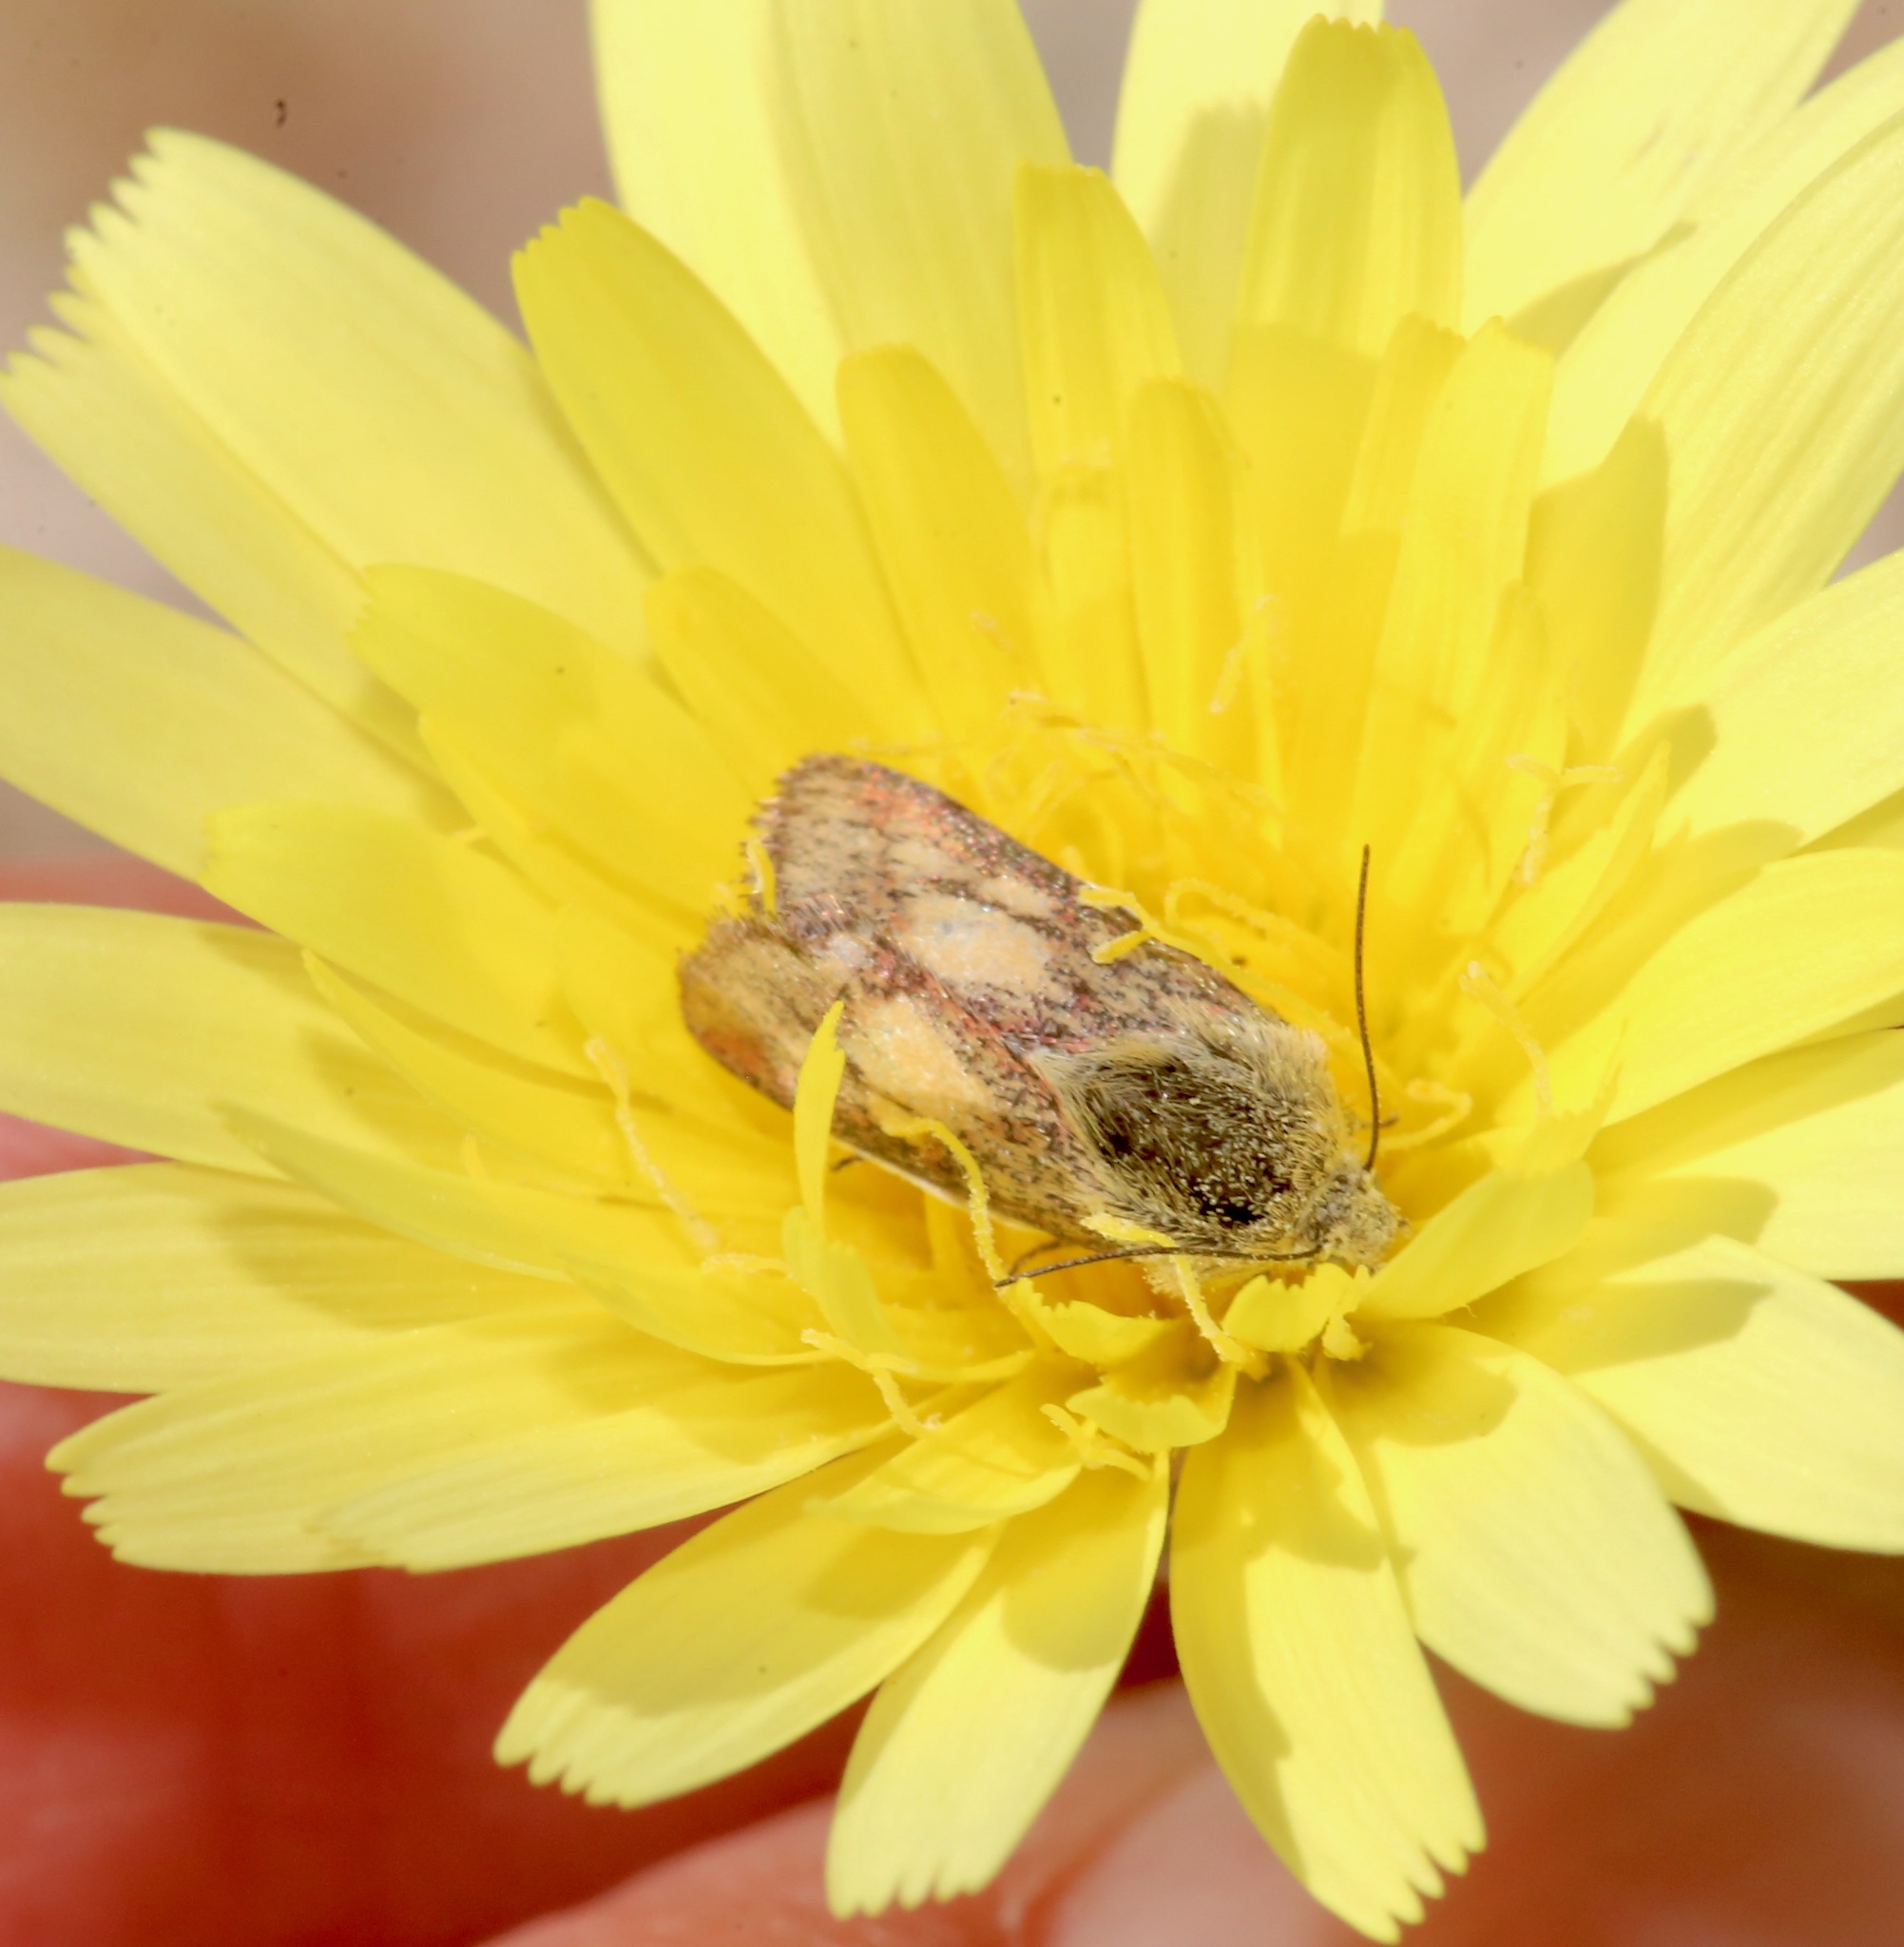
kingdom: Animalia
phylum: Arthropoda
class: Insecta
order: Lepidoptera
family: Noctuidae
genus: Heliolonche
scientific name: Heliolonche pictipennis
